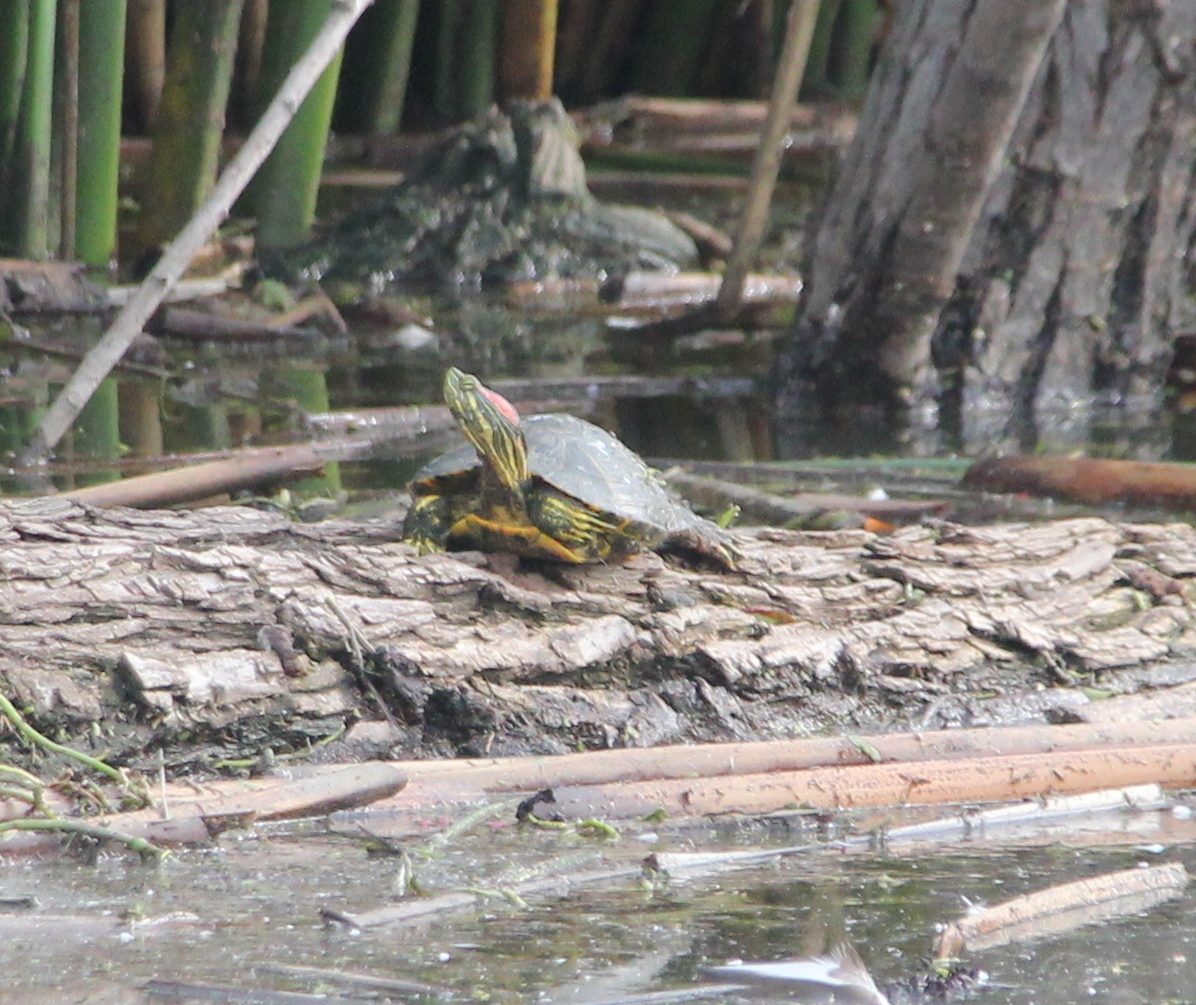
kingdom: Animalia
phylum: Chordata
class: Testudines
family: Emydidae
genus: Trachemys
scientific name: Trachemys scripta
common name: Slider
